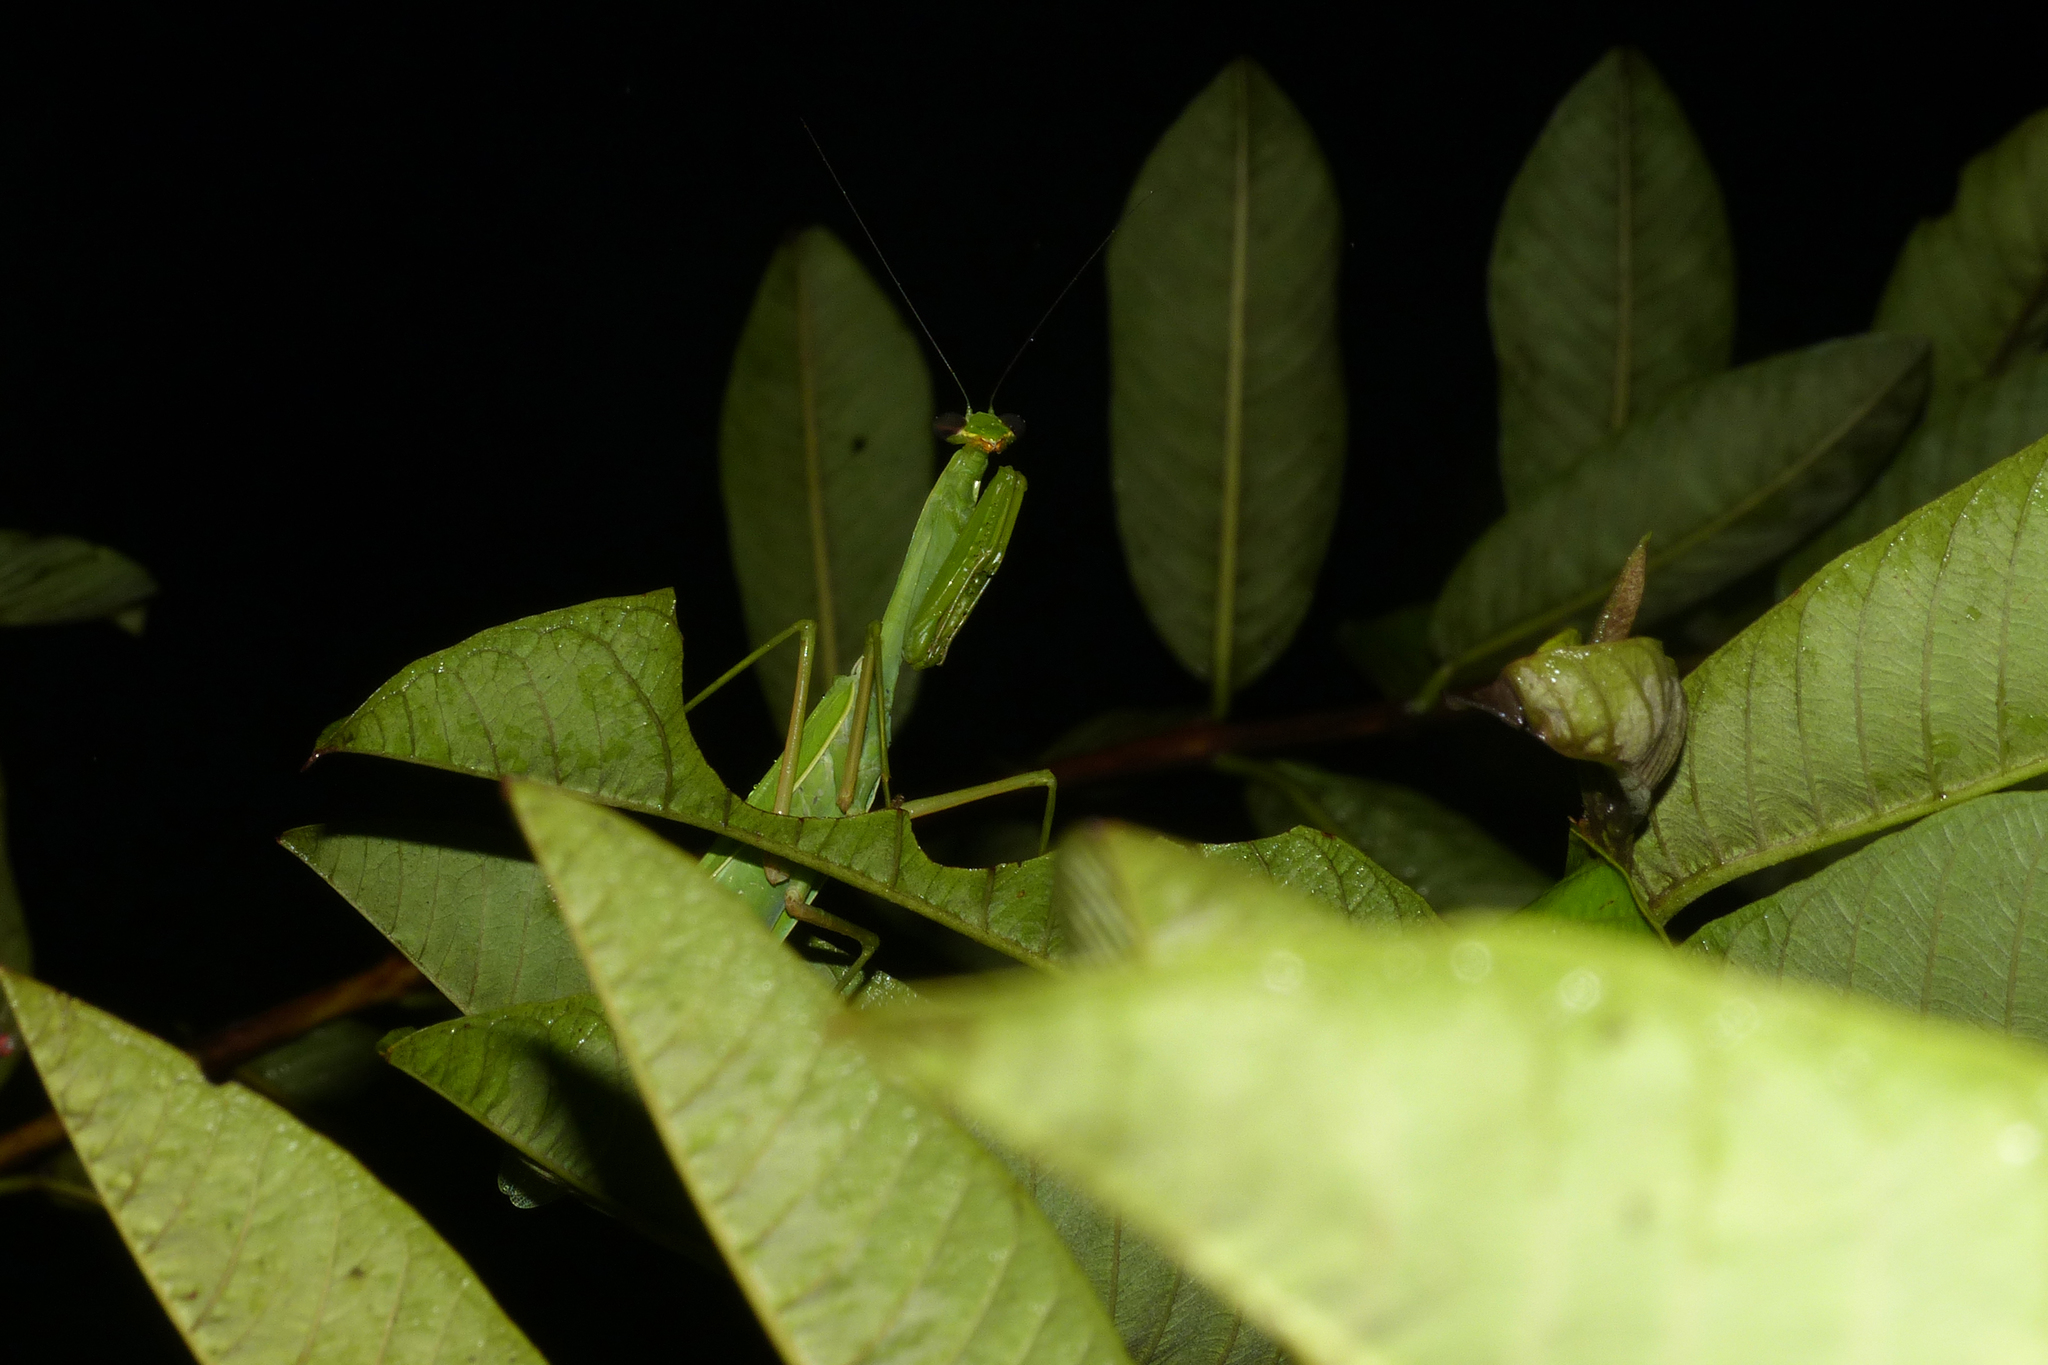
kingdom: Animalia
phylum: Arthropoda
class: Insecta
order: Mantodea
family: Mantidae
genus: Hierodula
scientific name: Hierodula membranacea
